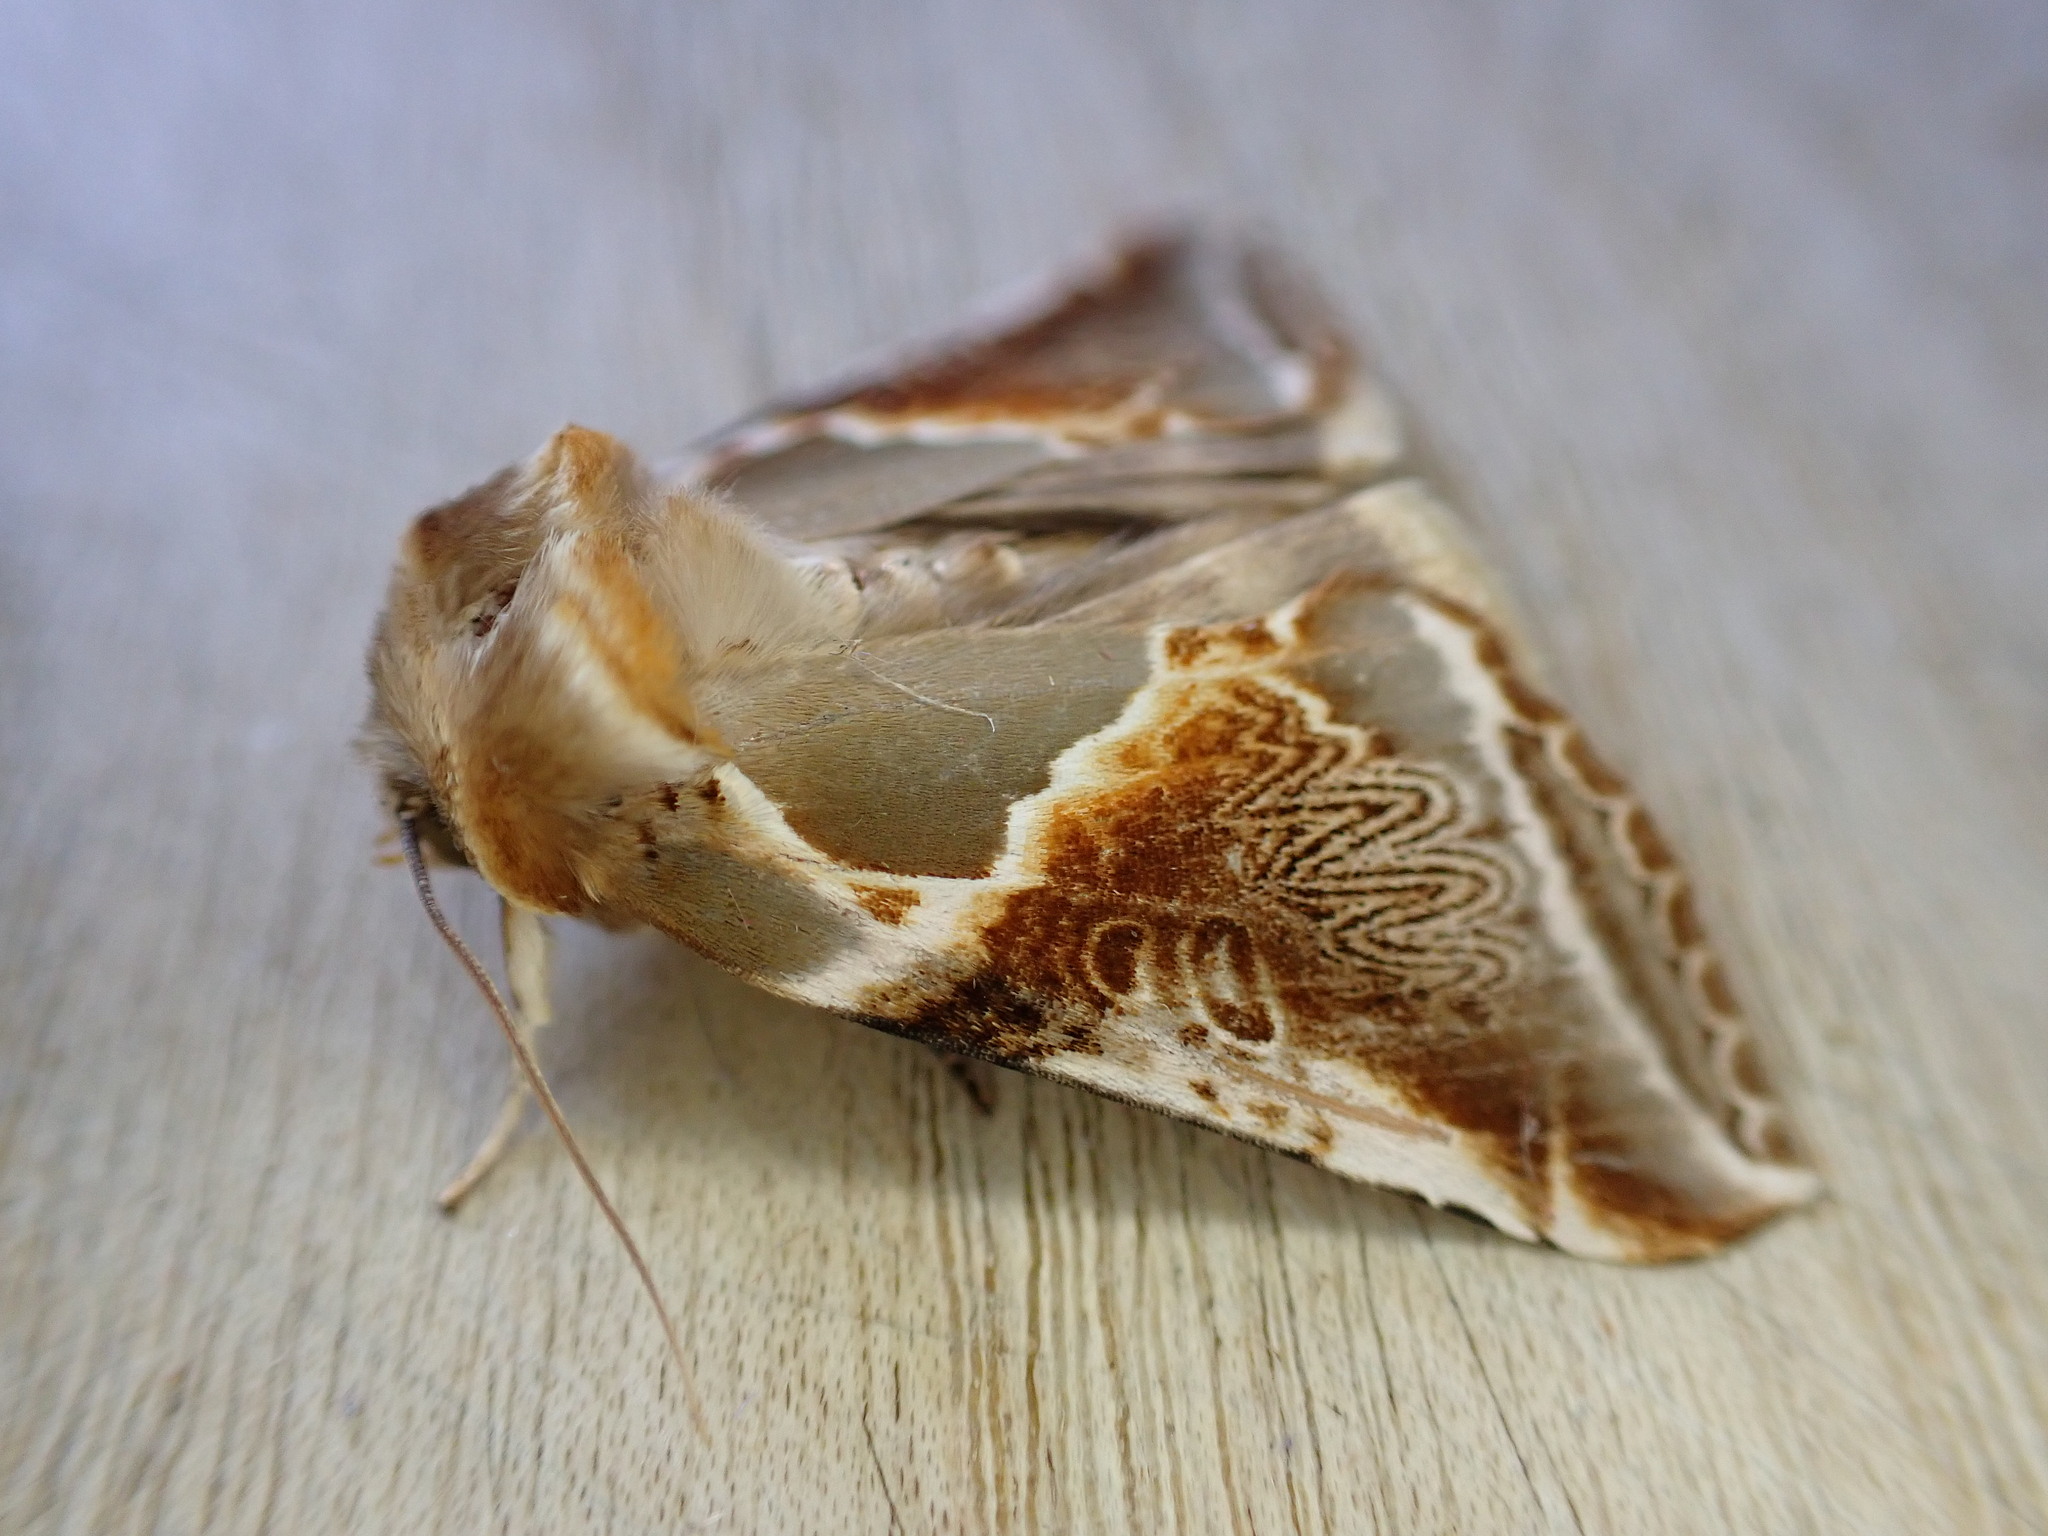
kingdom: Animalia
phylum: Arthropoda
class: Insecta
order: Lepidoptera
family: Drepanidae
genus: Habrosyne
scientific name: Habrosyne pyritoides
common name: Buff arches
